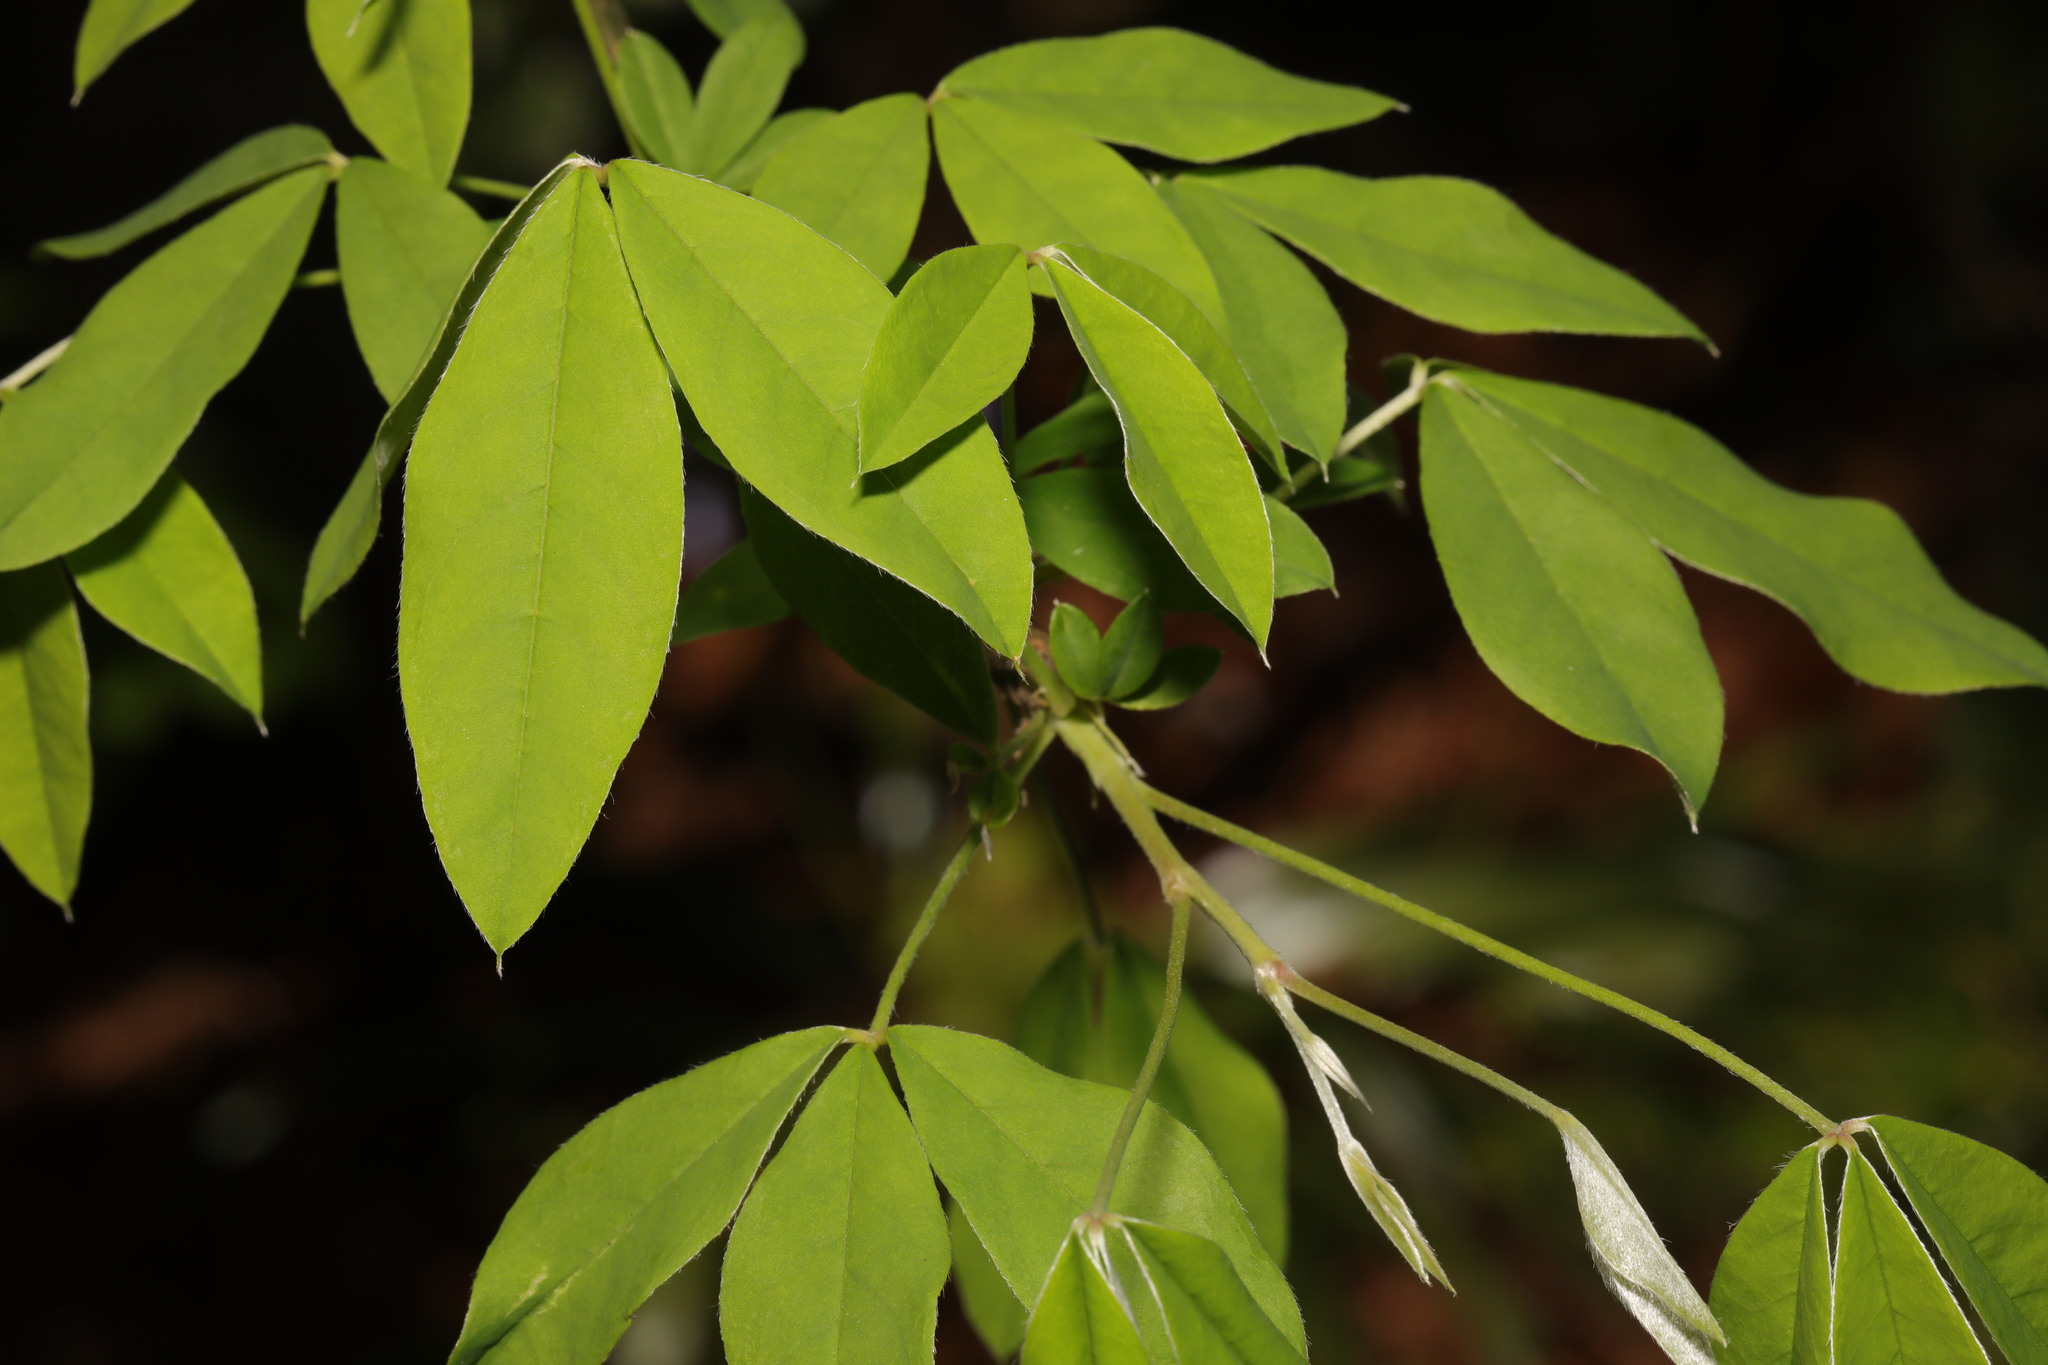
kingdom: Plantae
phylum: Tracheophyta
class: Magnoliopsida
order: Fabales
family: Fabaceae
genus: Laburnum
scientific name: Laburnum anagyroides
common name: Laburnum
